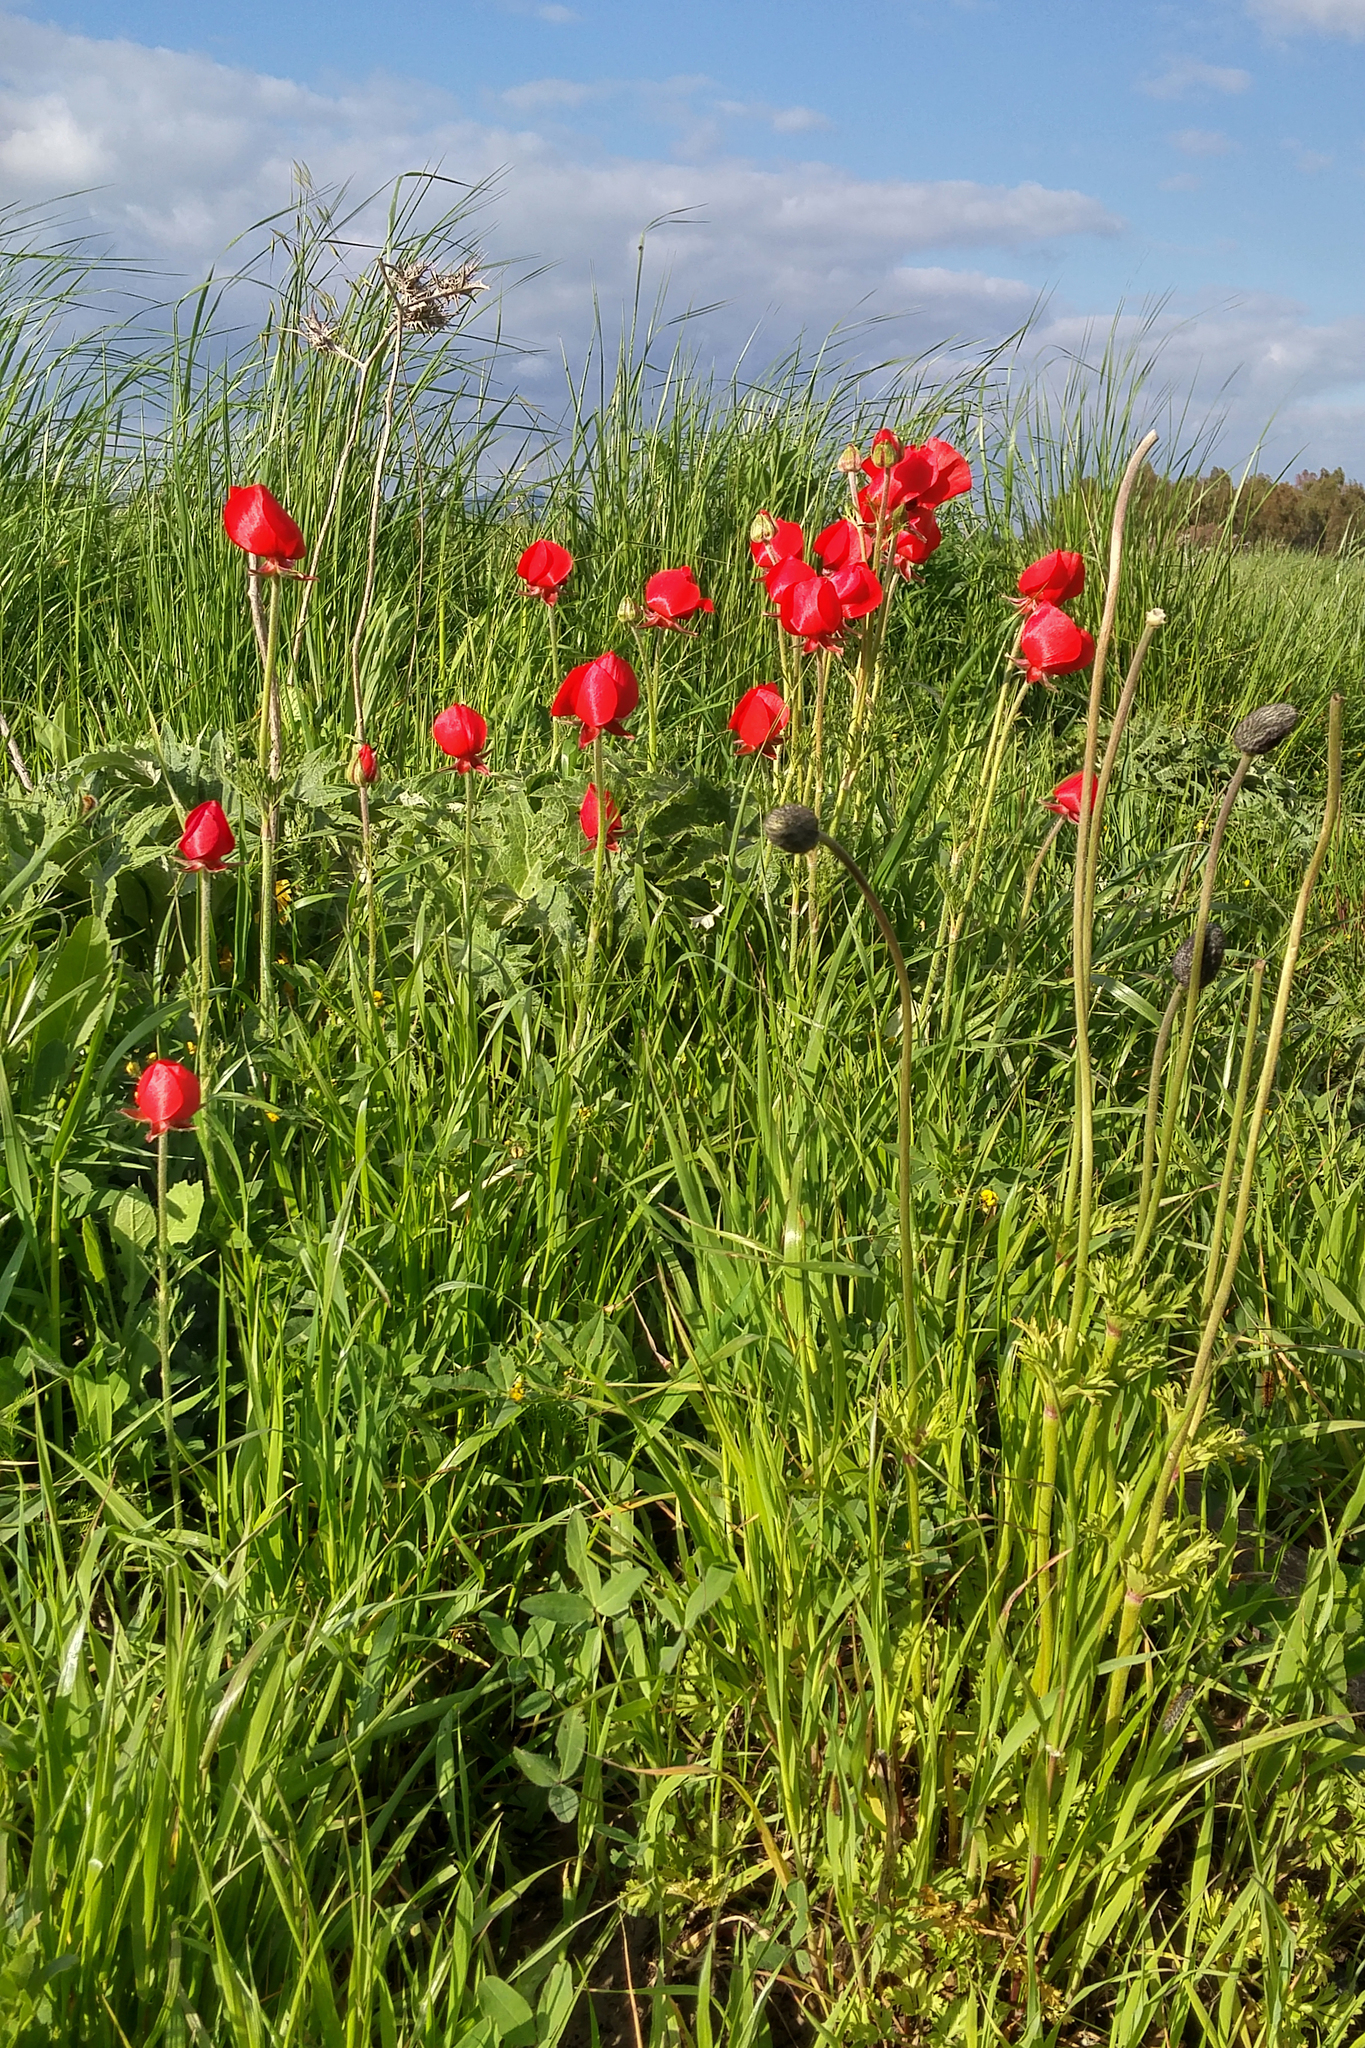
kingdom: Plantae
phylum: Tracheophyta
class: Magnoliopsida
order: Ranunculales
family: Ranunculaceae
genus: Ranunculus
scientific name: Ranunculus asiaticus
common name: Persian buttercup
